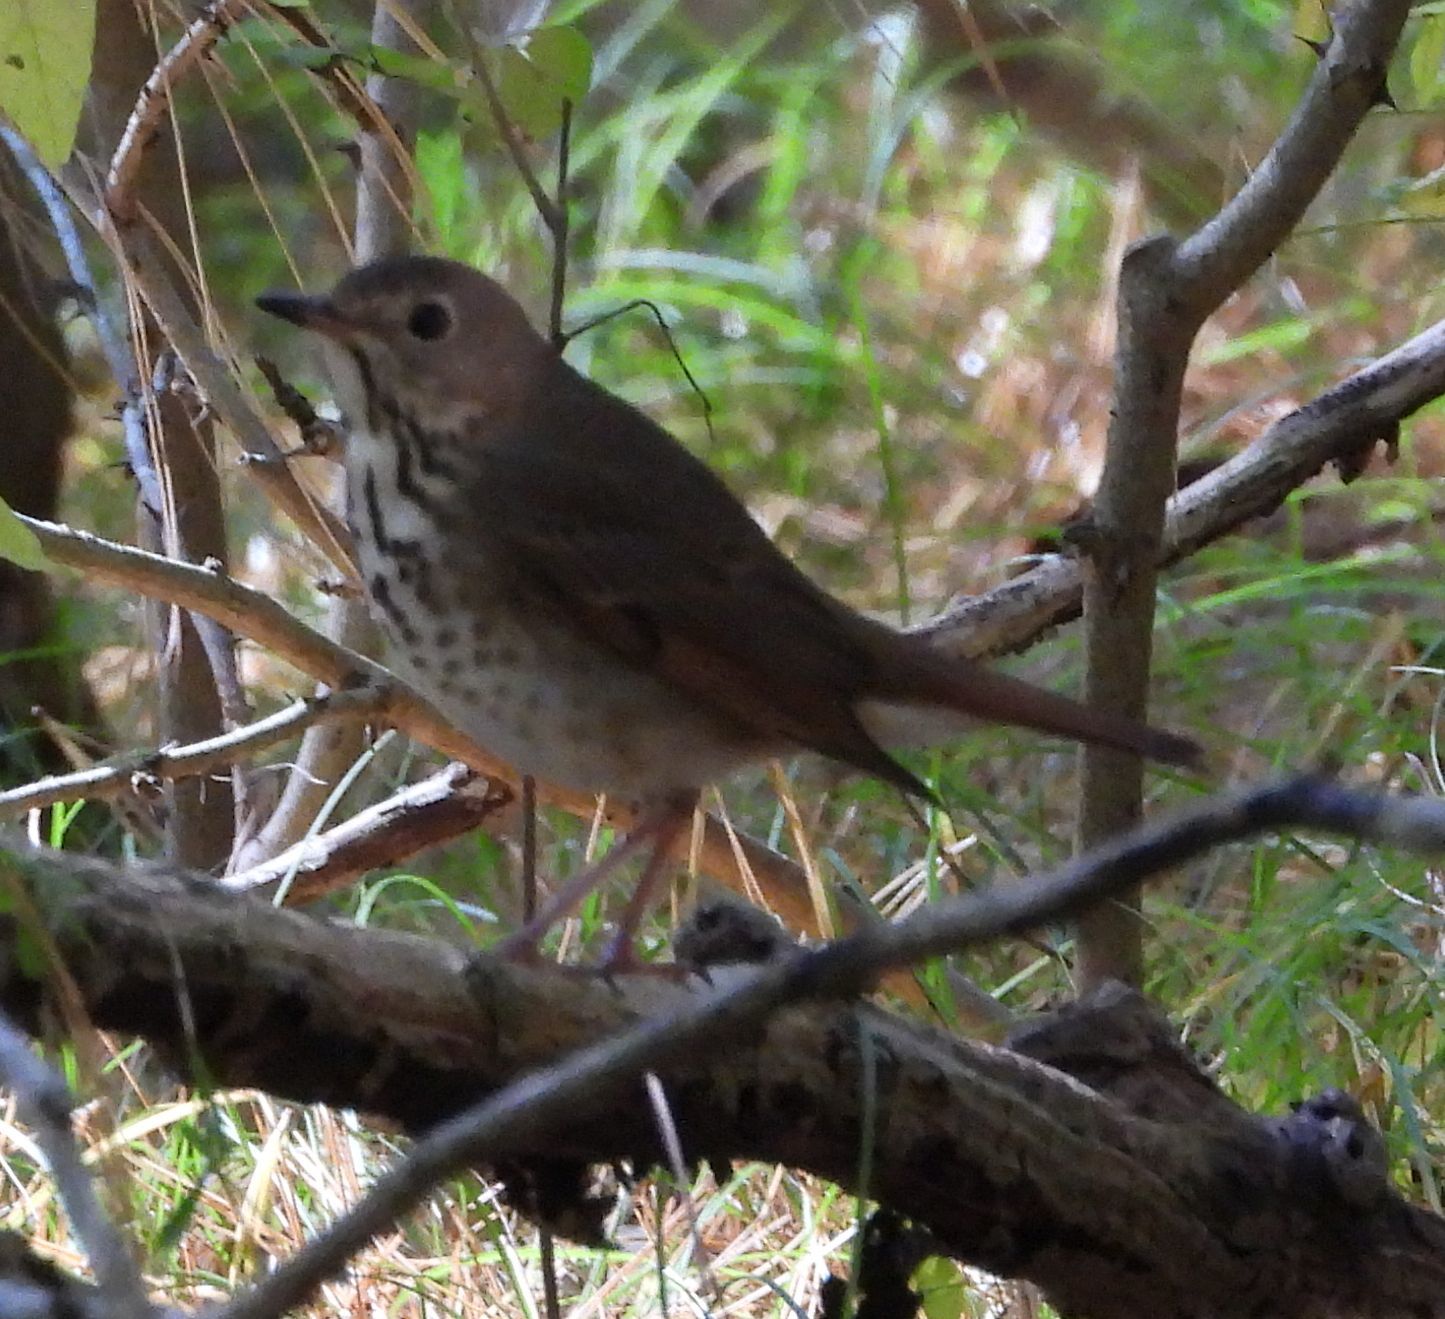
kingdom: Animalia
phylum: Chordata
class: Aves
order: Passeriformes
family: Turdidae
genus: Catharus
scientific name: Catharus guttatus
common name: Hermit thrush
